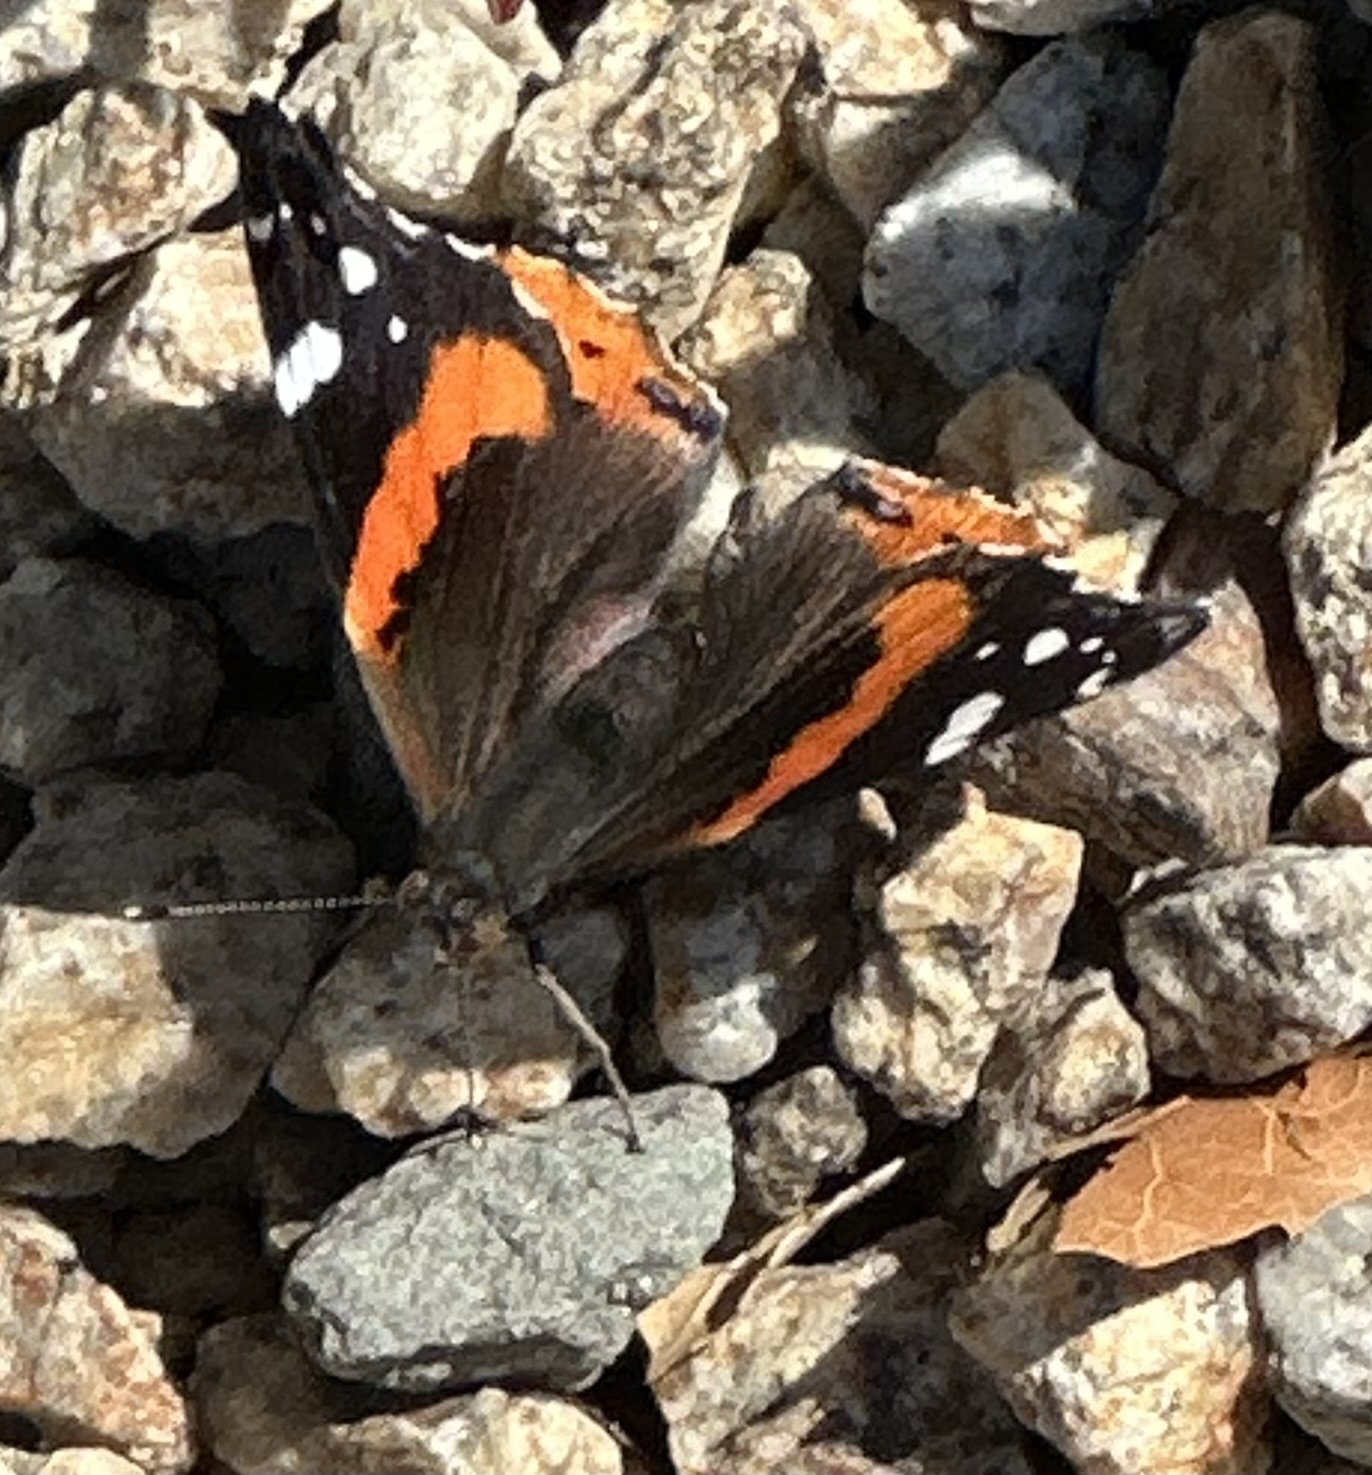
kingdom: Animalia
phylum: Arthropoda
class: Insecta
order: Lepidoptera
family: Nymphalidae
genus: Vanessa
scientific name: Vanessa atalanta
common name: Red admiral
